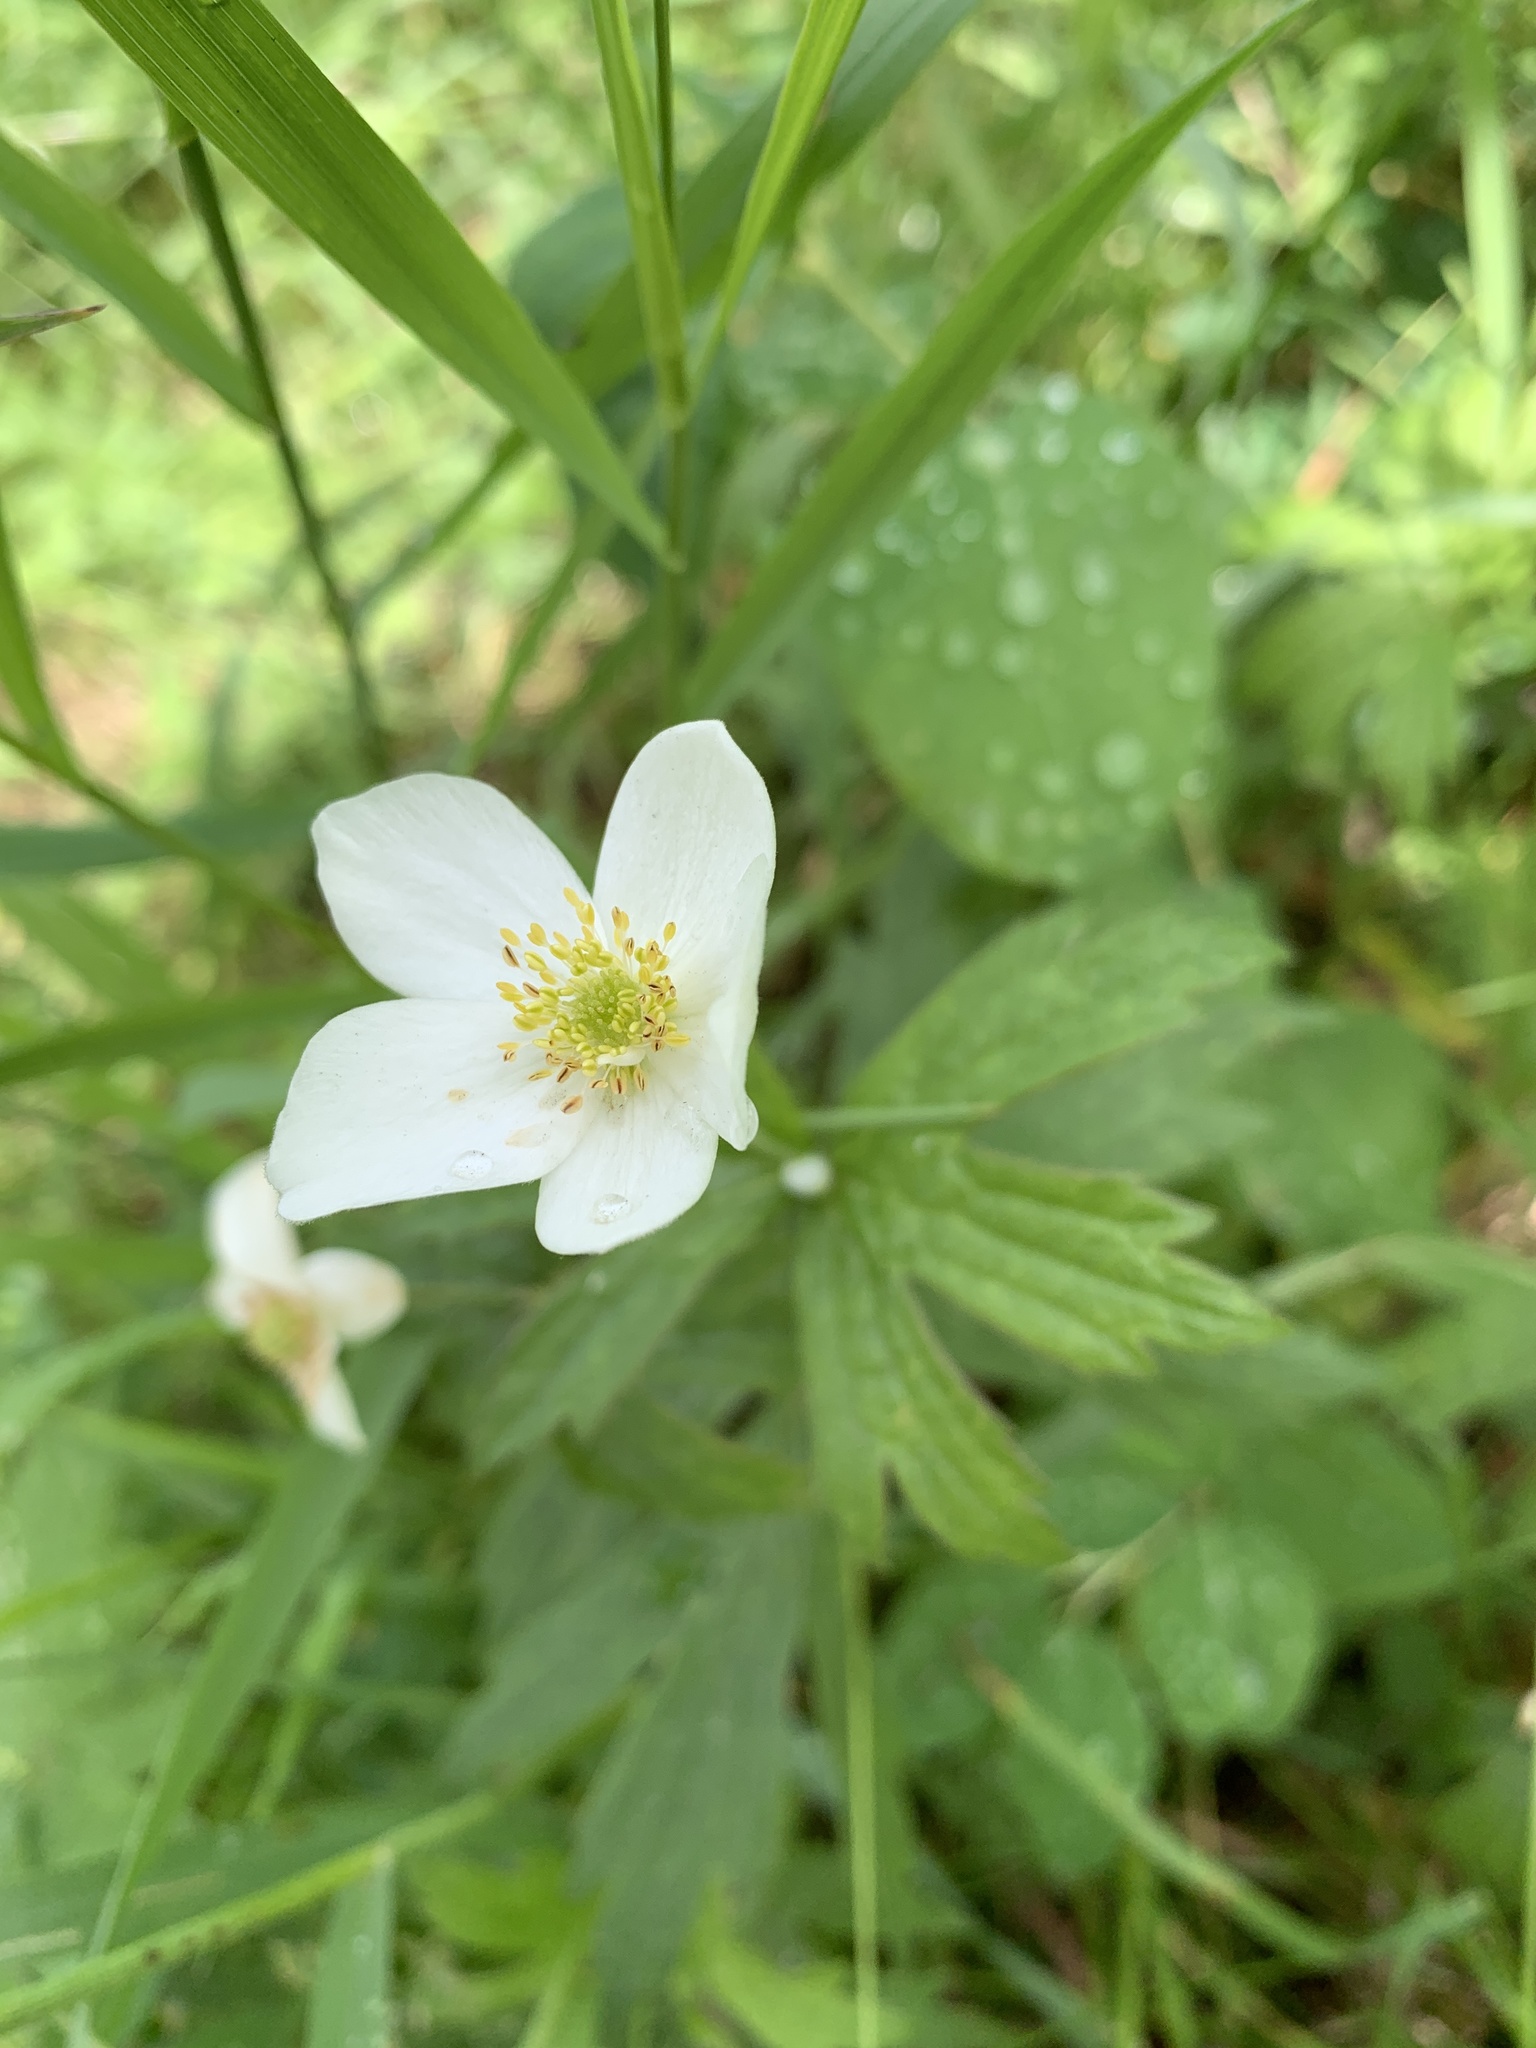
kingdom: Plantae
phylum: Tracheophyta
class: Magnoliopsida
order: Ranunculales
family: Ranunculaceae
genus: Anemonastrum
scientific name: Anemonastrum canadense
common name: Canada anemone
